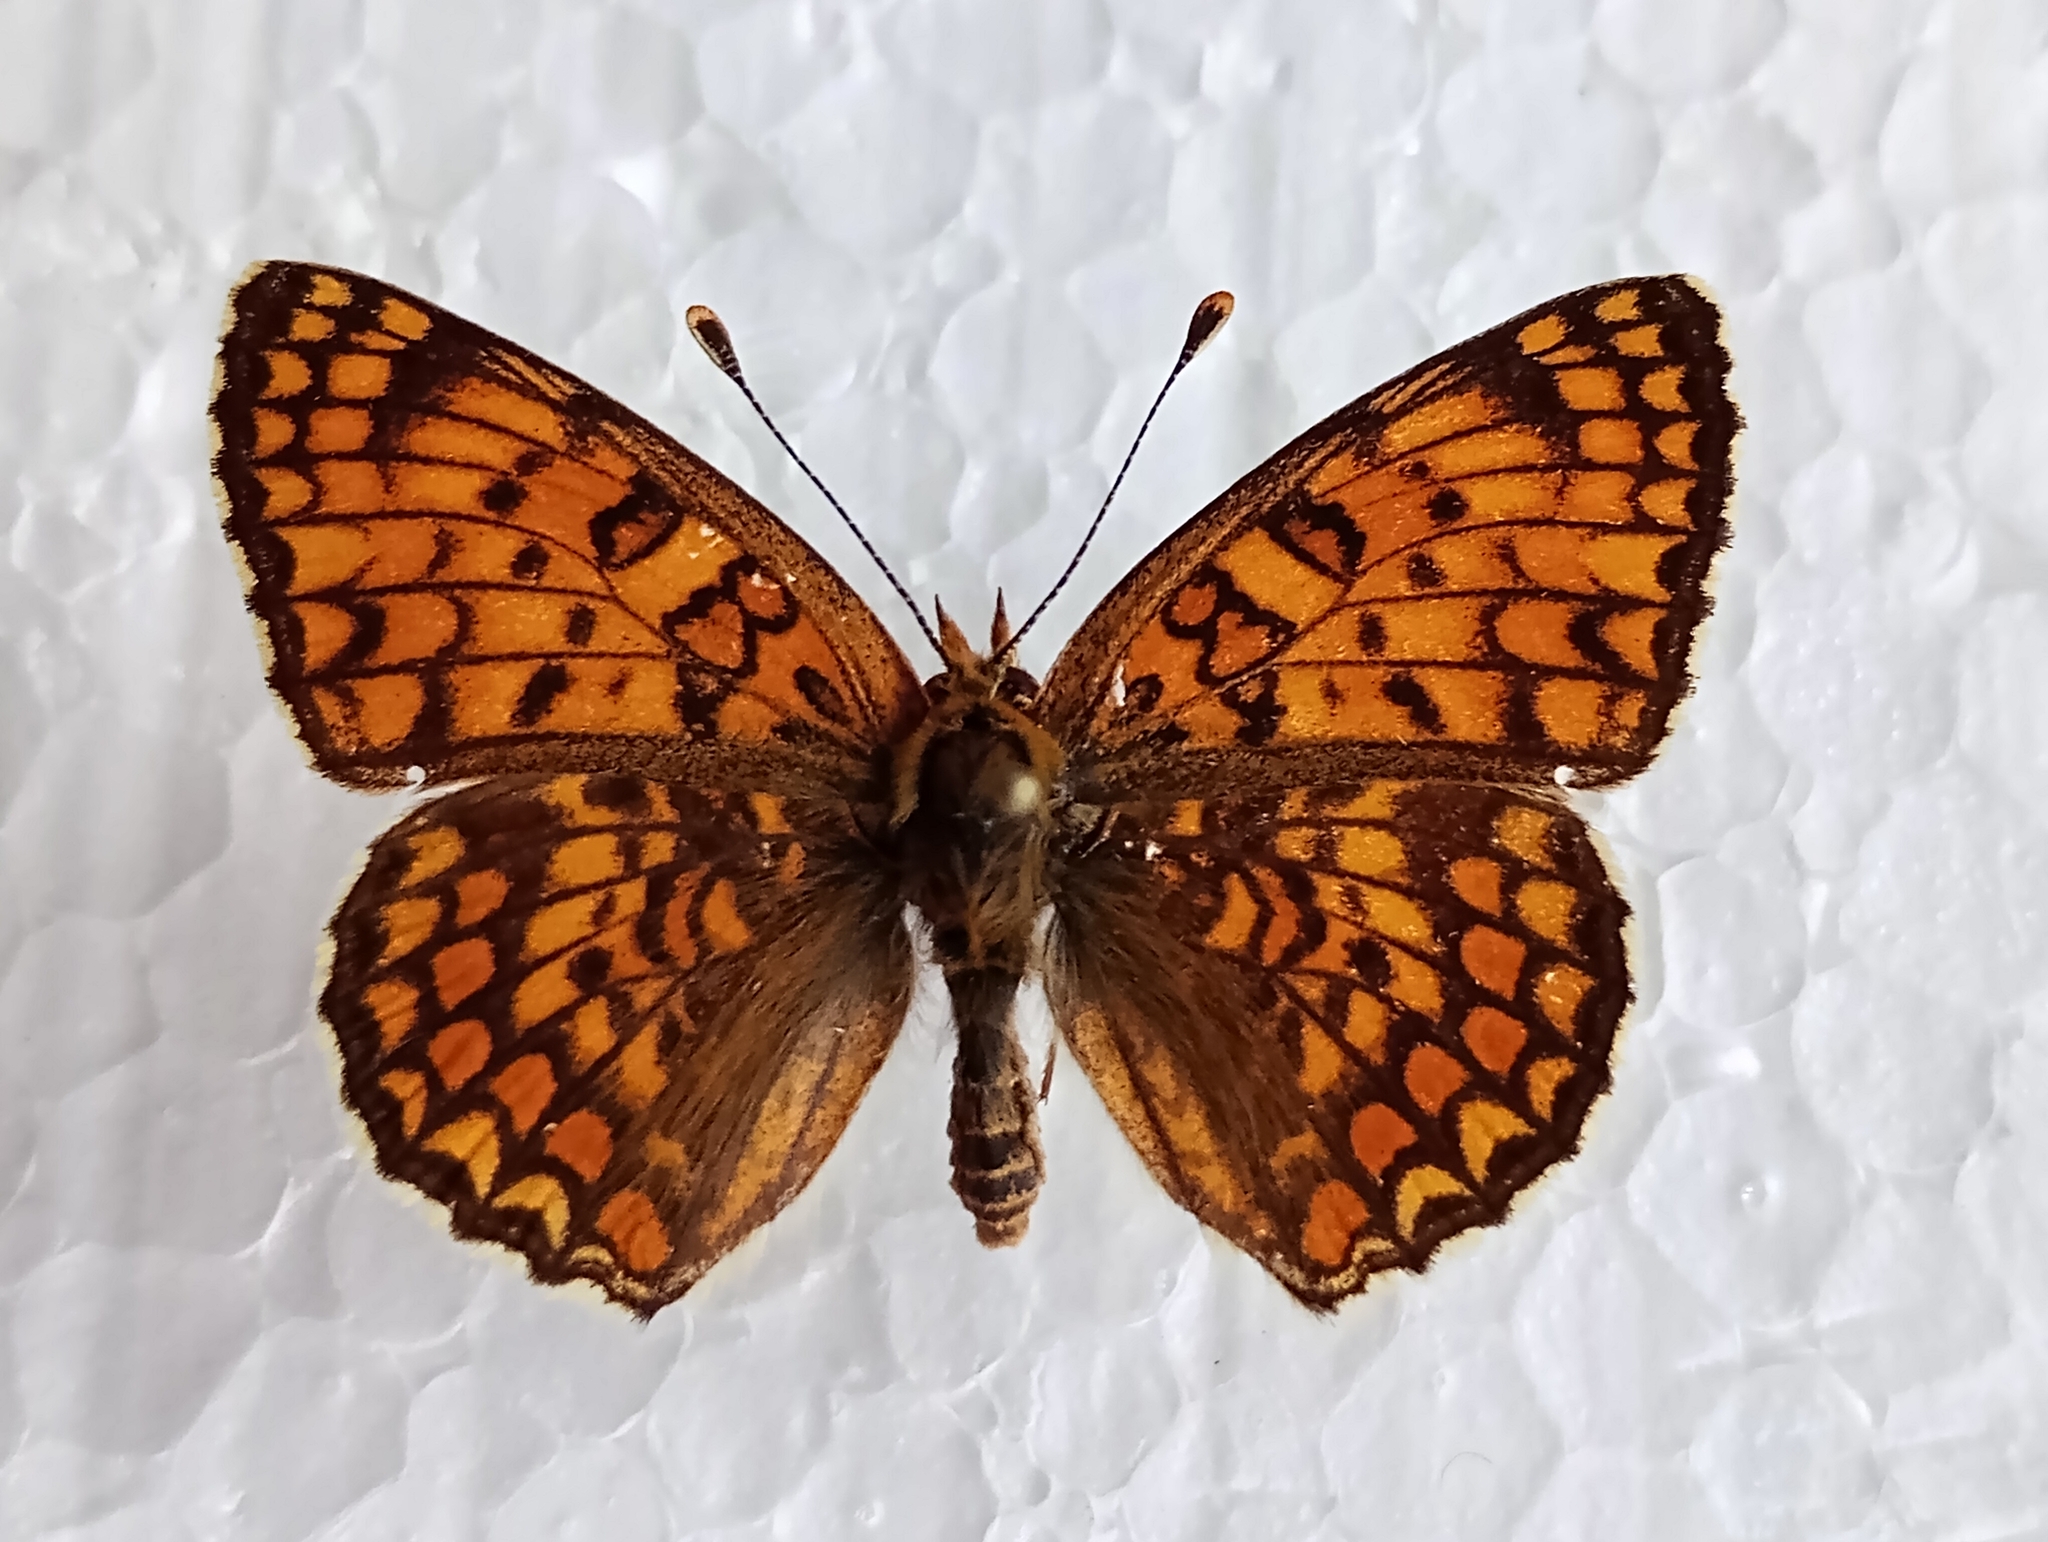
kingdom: Animalia
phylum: Arthropoda
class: Insecta
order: Lepidoptera
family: Nymphalidae
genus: Melitaea
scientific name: Melitaea phoebe
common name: Knapweed fritillary
